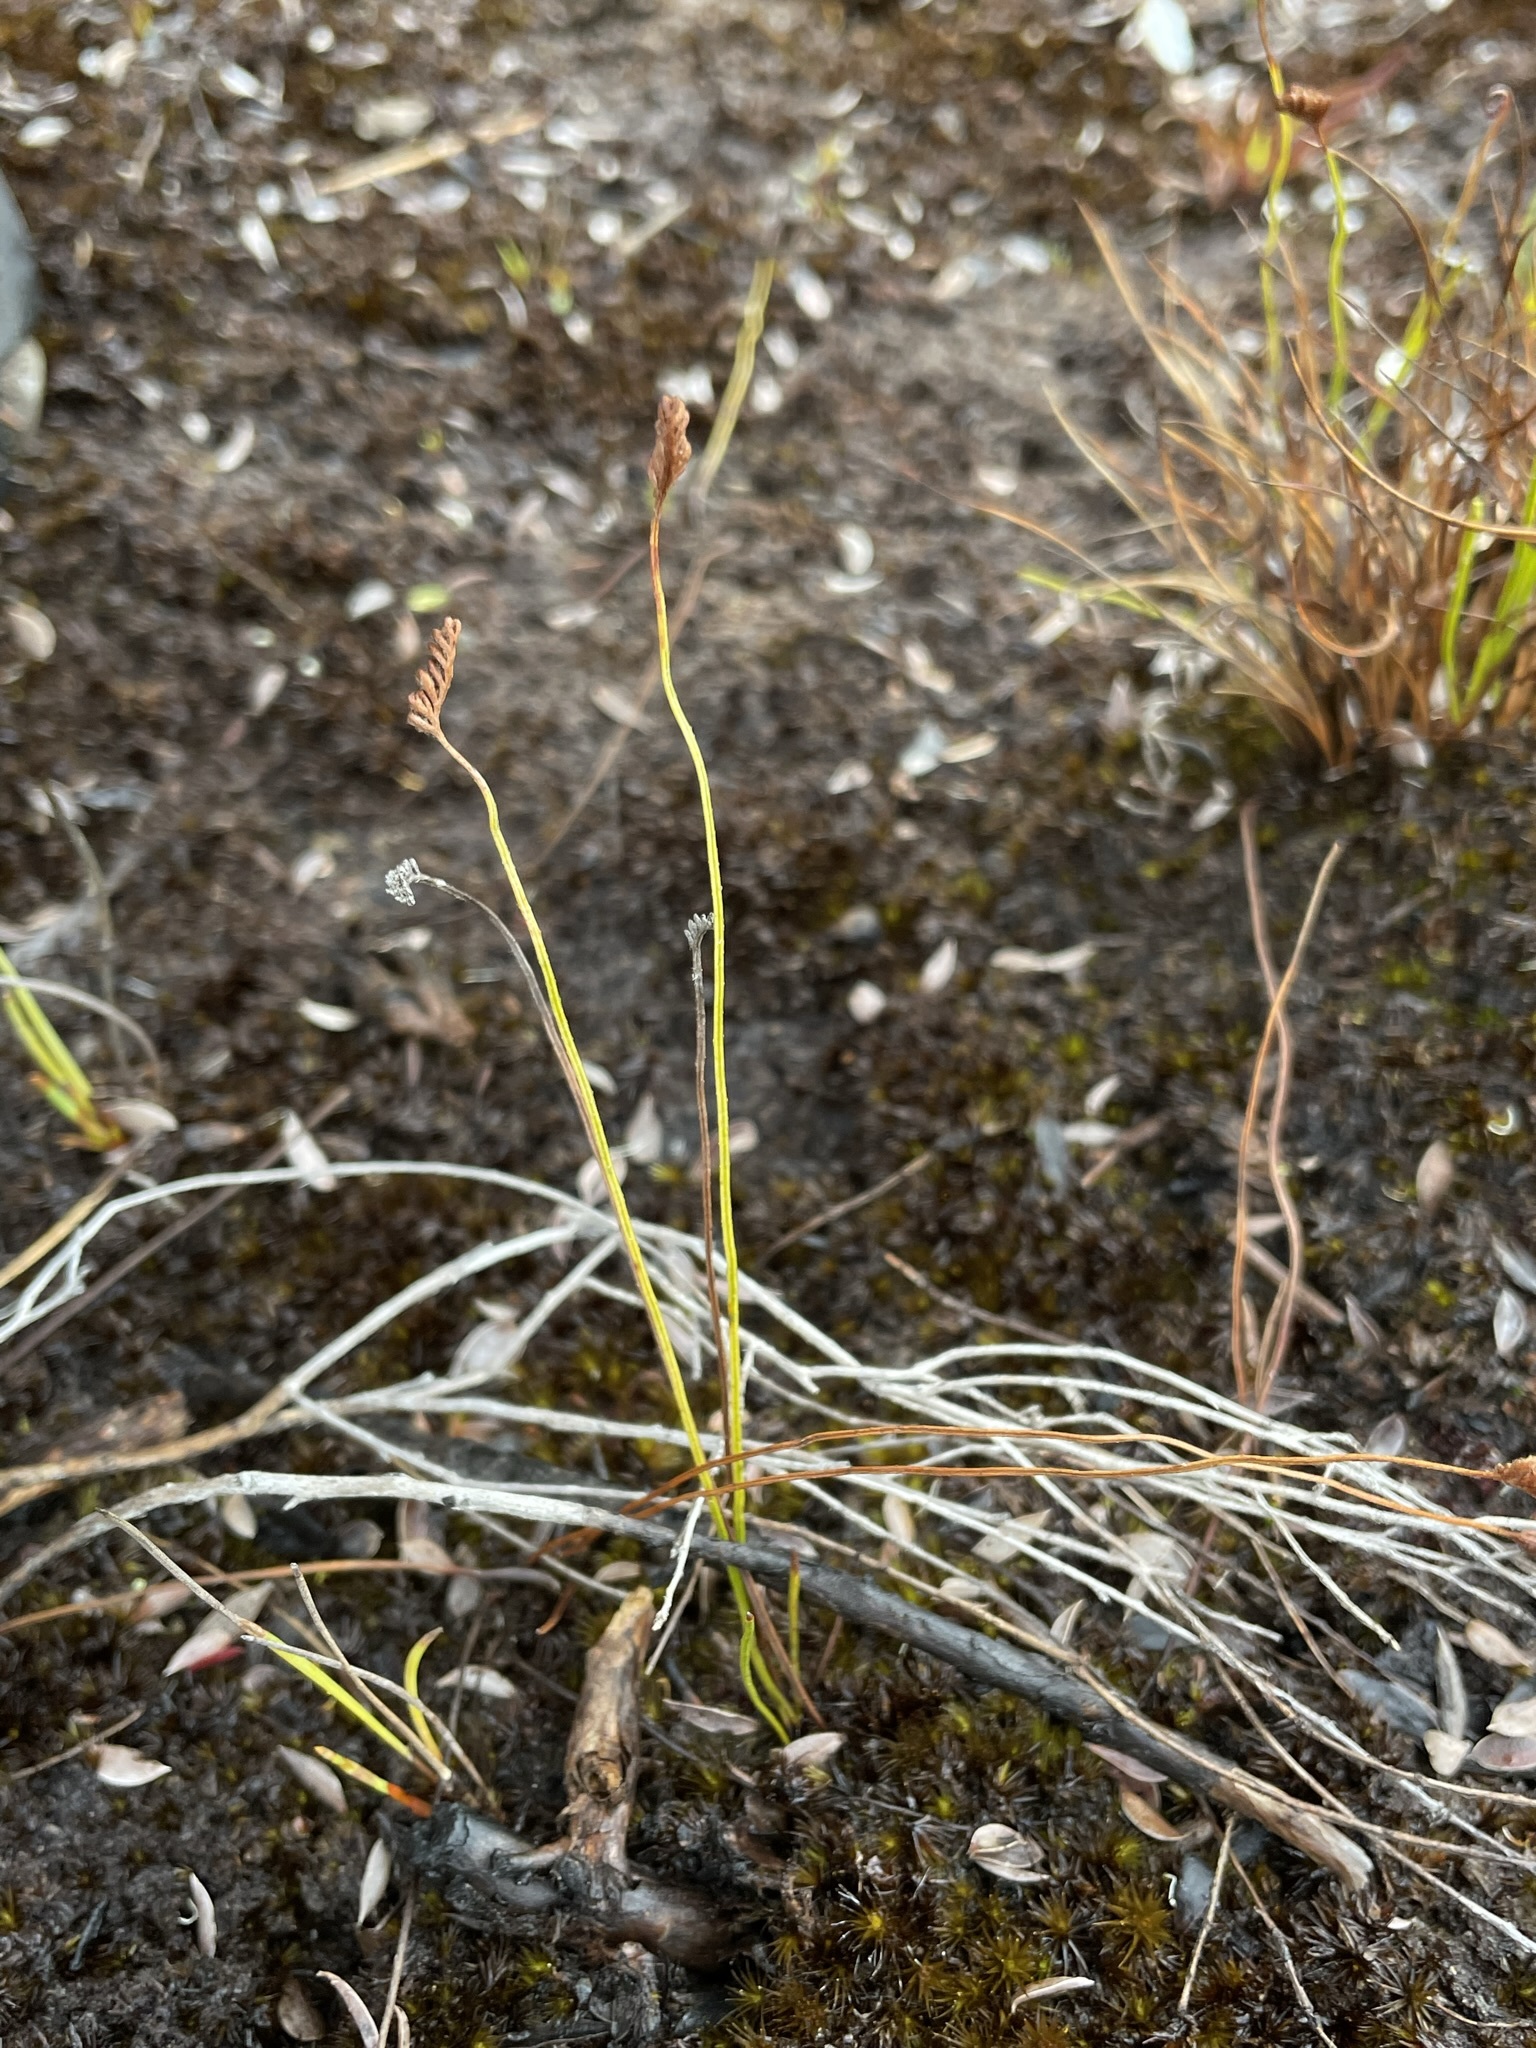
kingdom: Plantae
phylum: Tracheophyta
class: Polypodiopsida
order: Schizaeales
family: Schizaeaceae
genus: Microschizaea
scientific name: Microschizaea fistulosa
